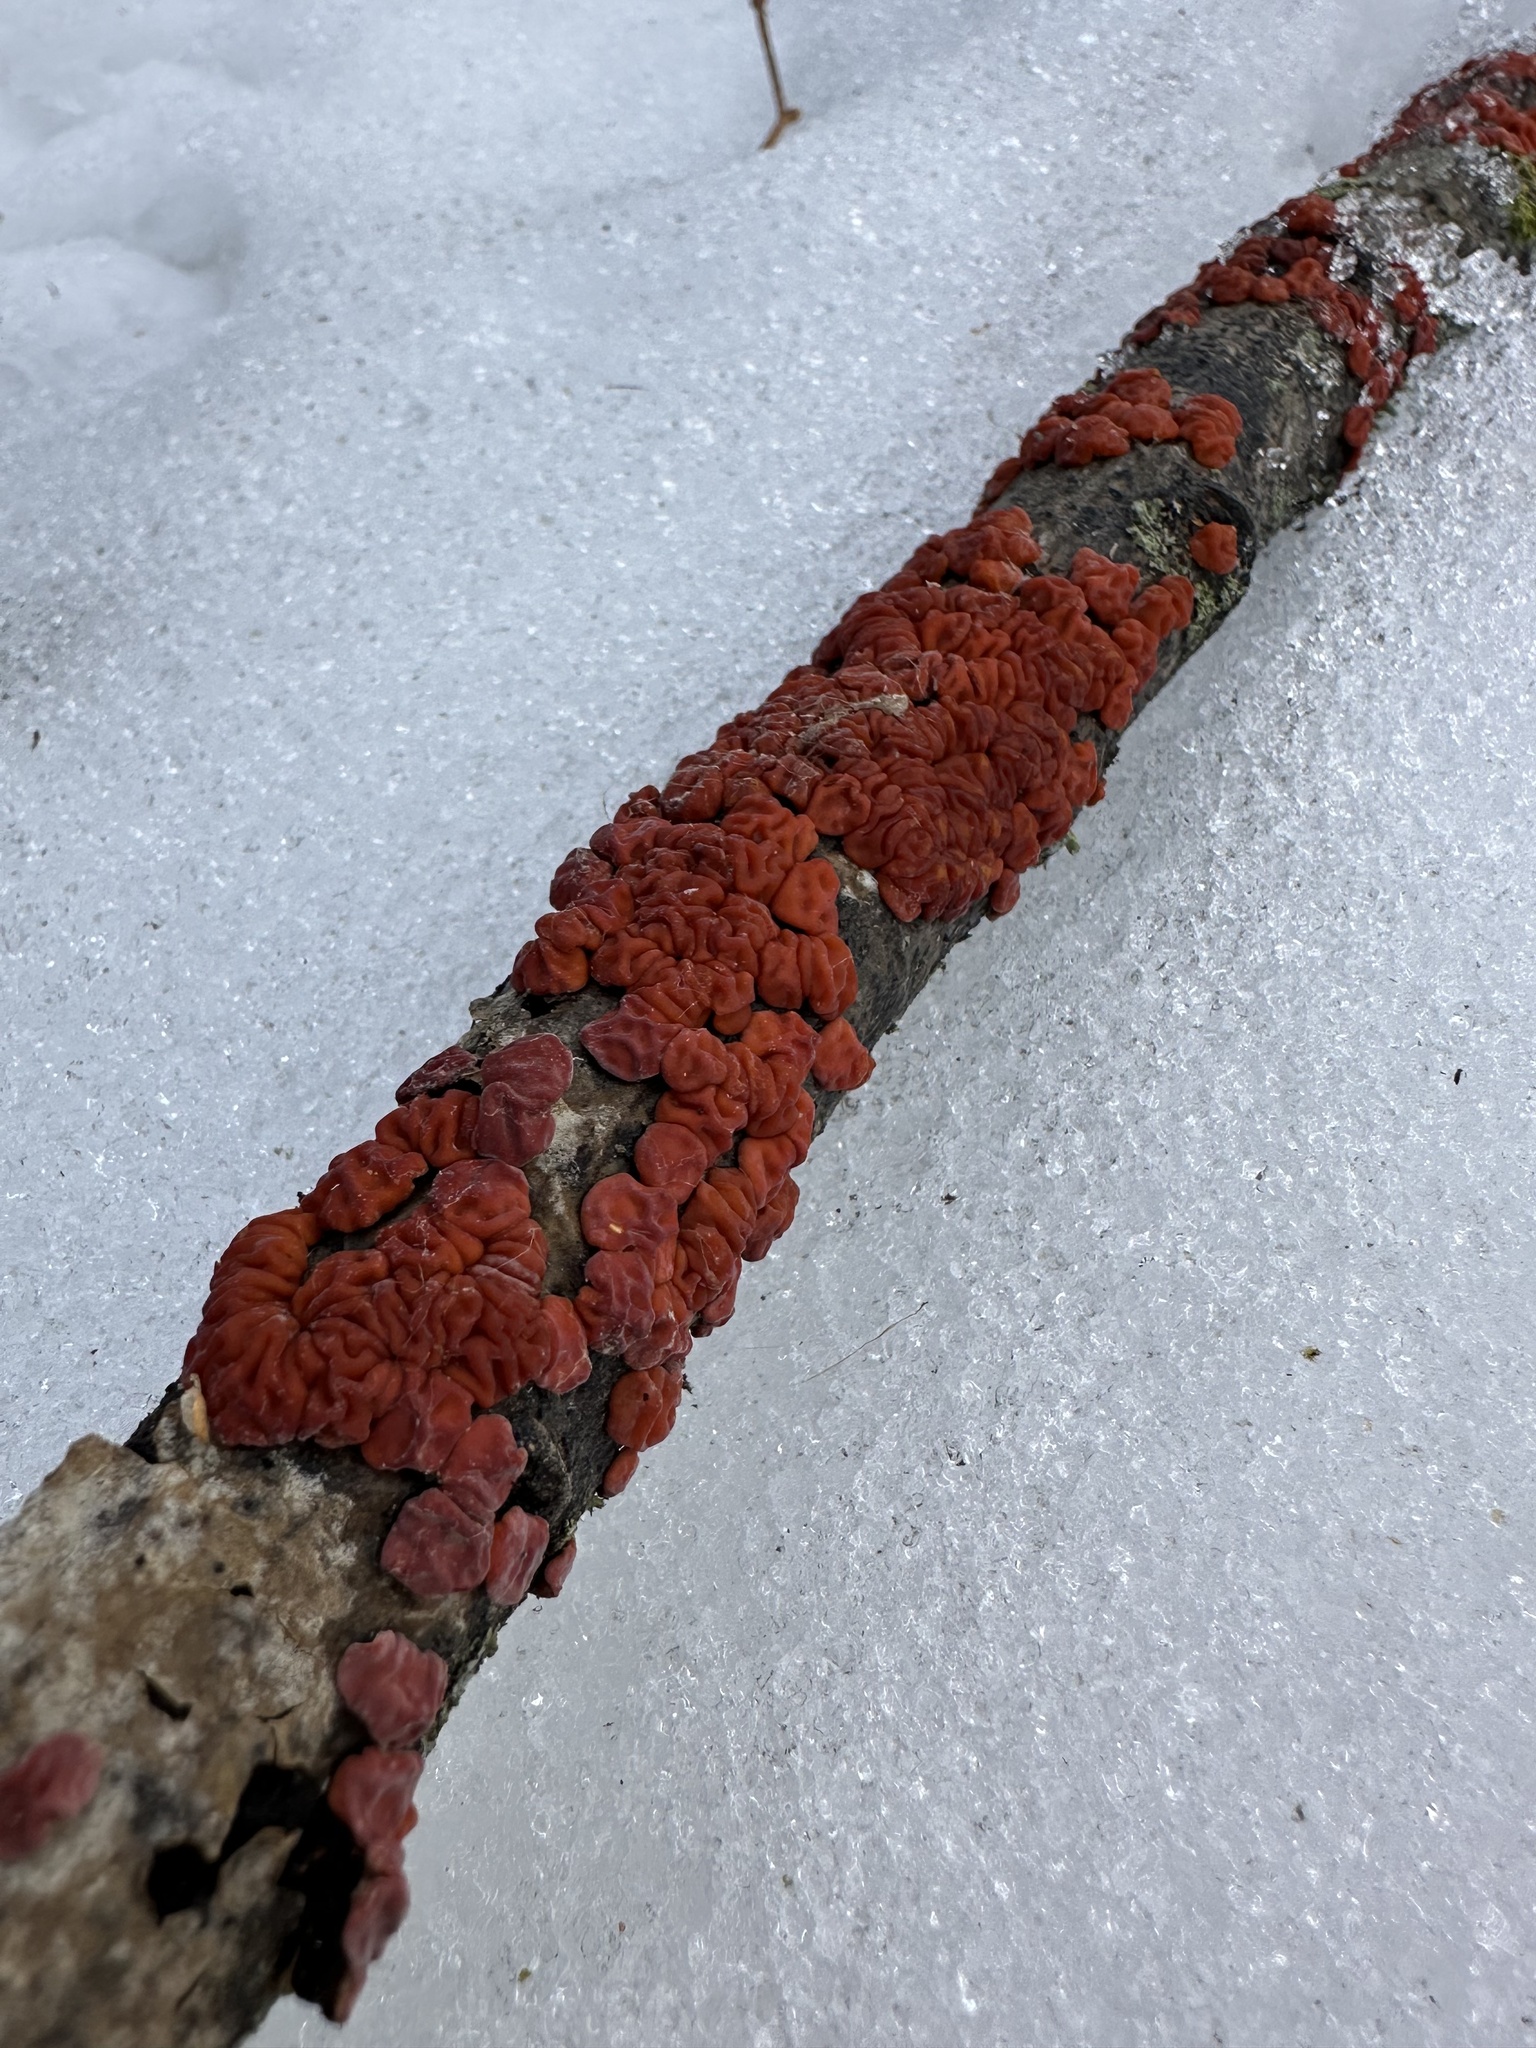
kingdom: Fungi
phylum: Basidiomycota
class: Agaricomycetes
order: Russulales
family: Peniophoraceae
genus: Peniophora
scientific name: Peniophora rufa
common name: Red tree brain fungus
